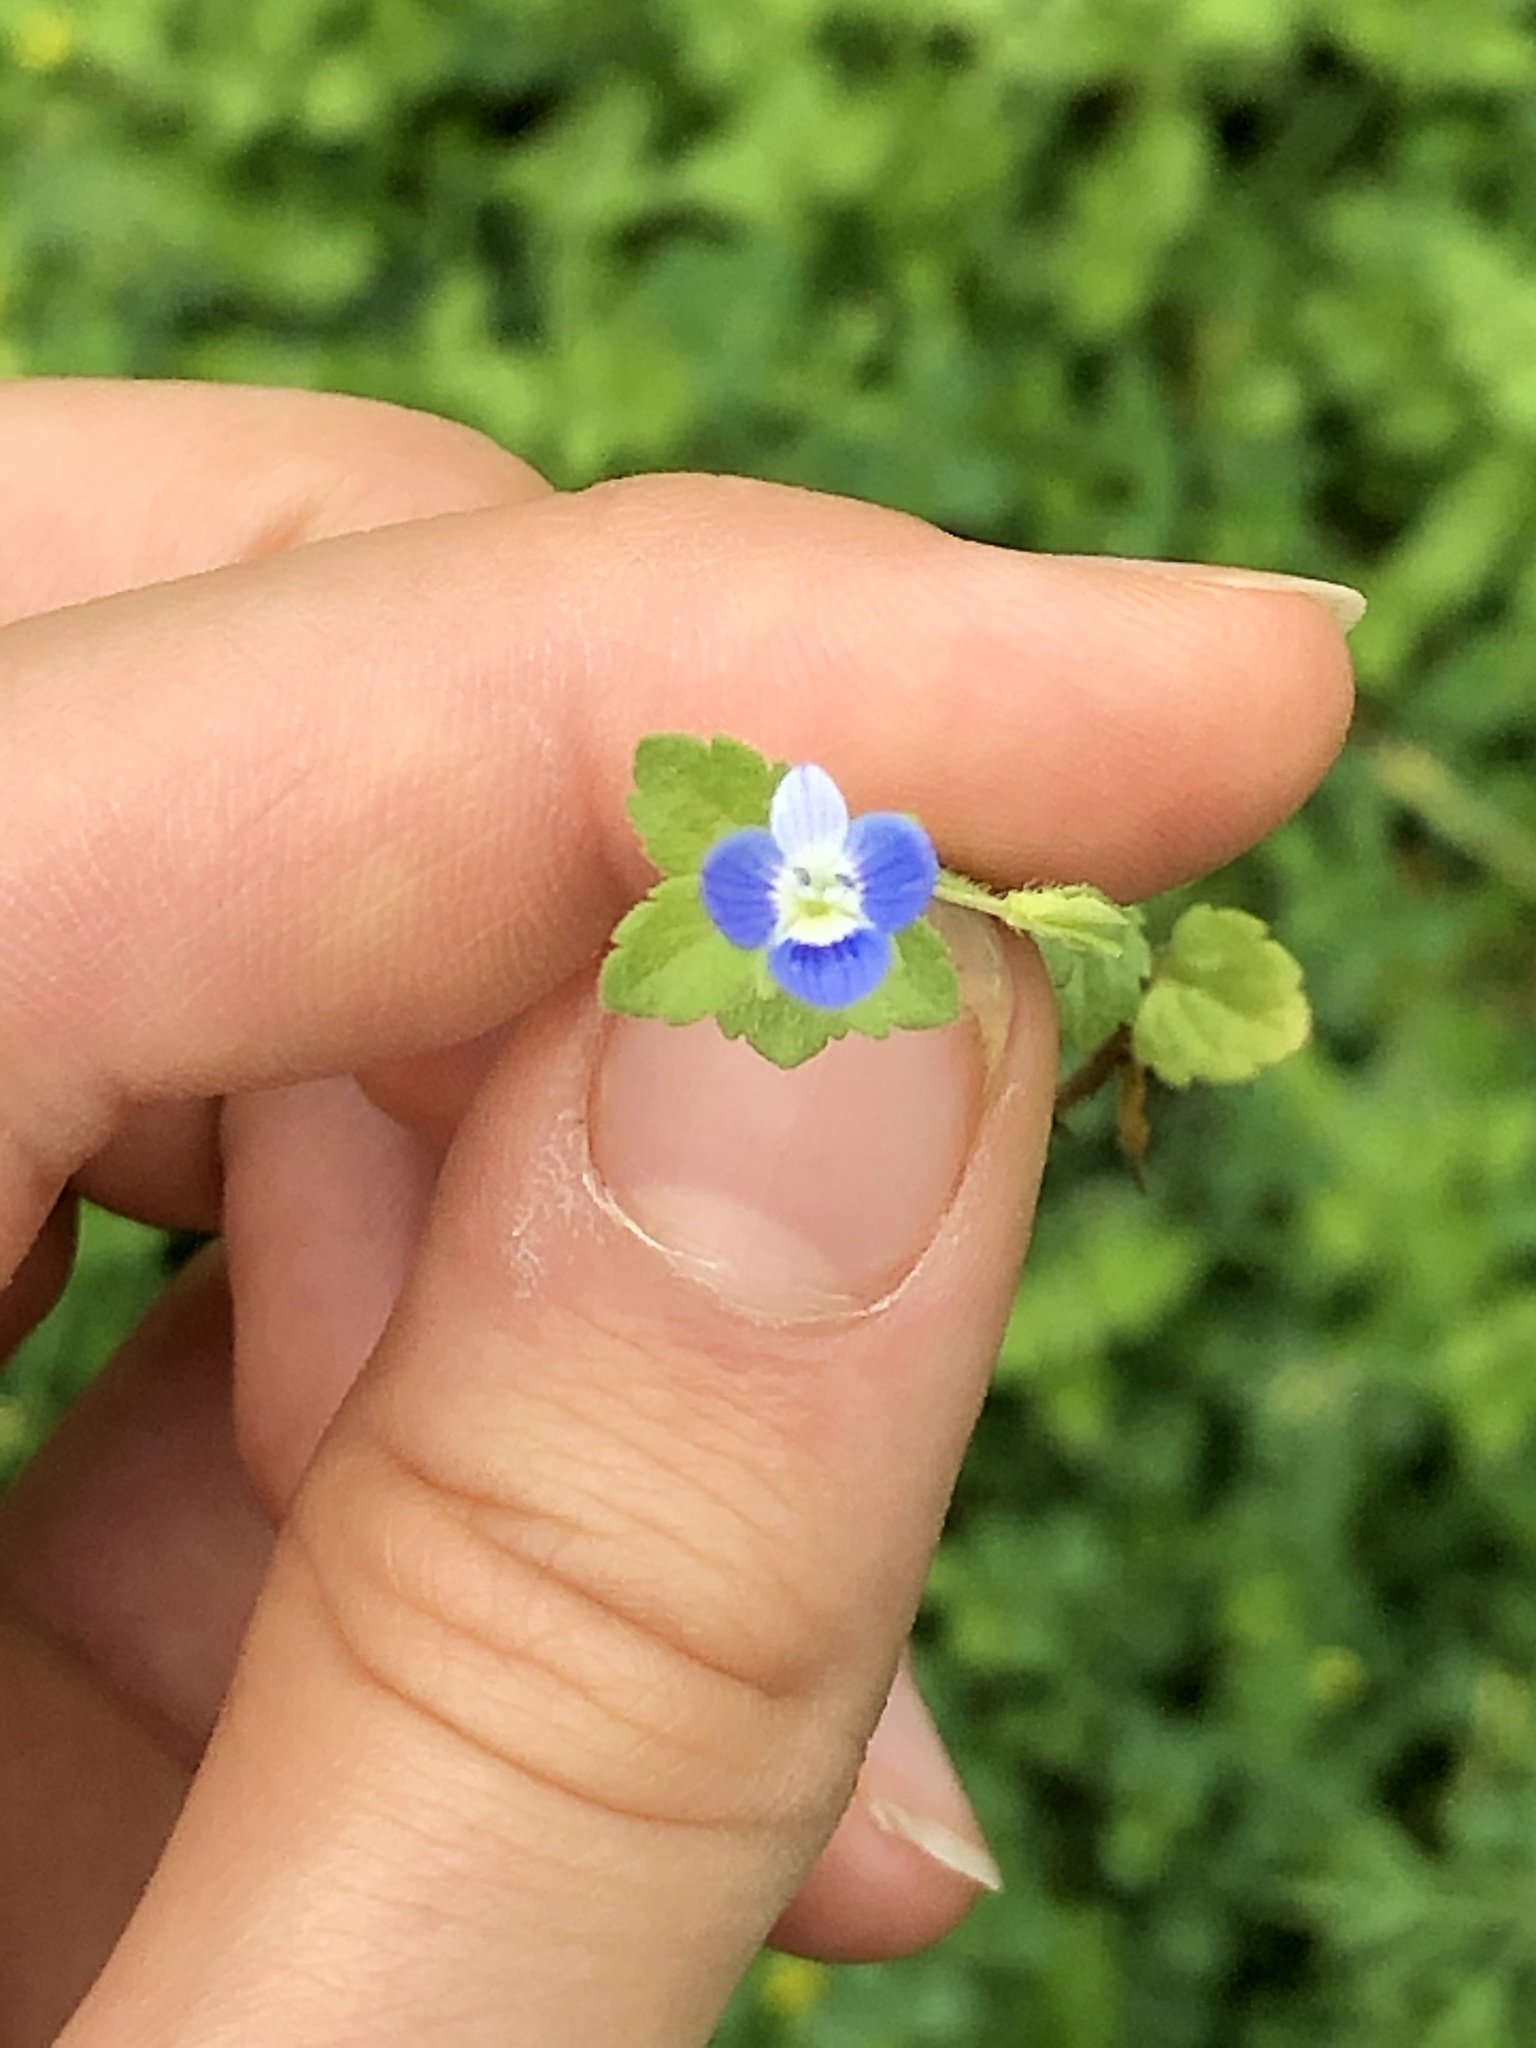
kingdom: Plantae
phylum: Tracheophyta
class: Magnoliopsida
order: Lamiales
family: Plantaginaceae
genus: Veronica
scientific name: Veronica persica
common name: Common field-speedwell
